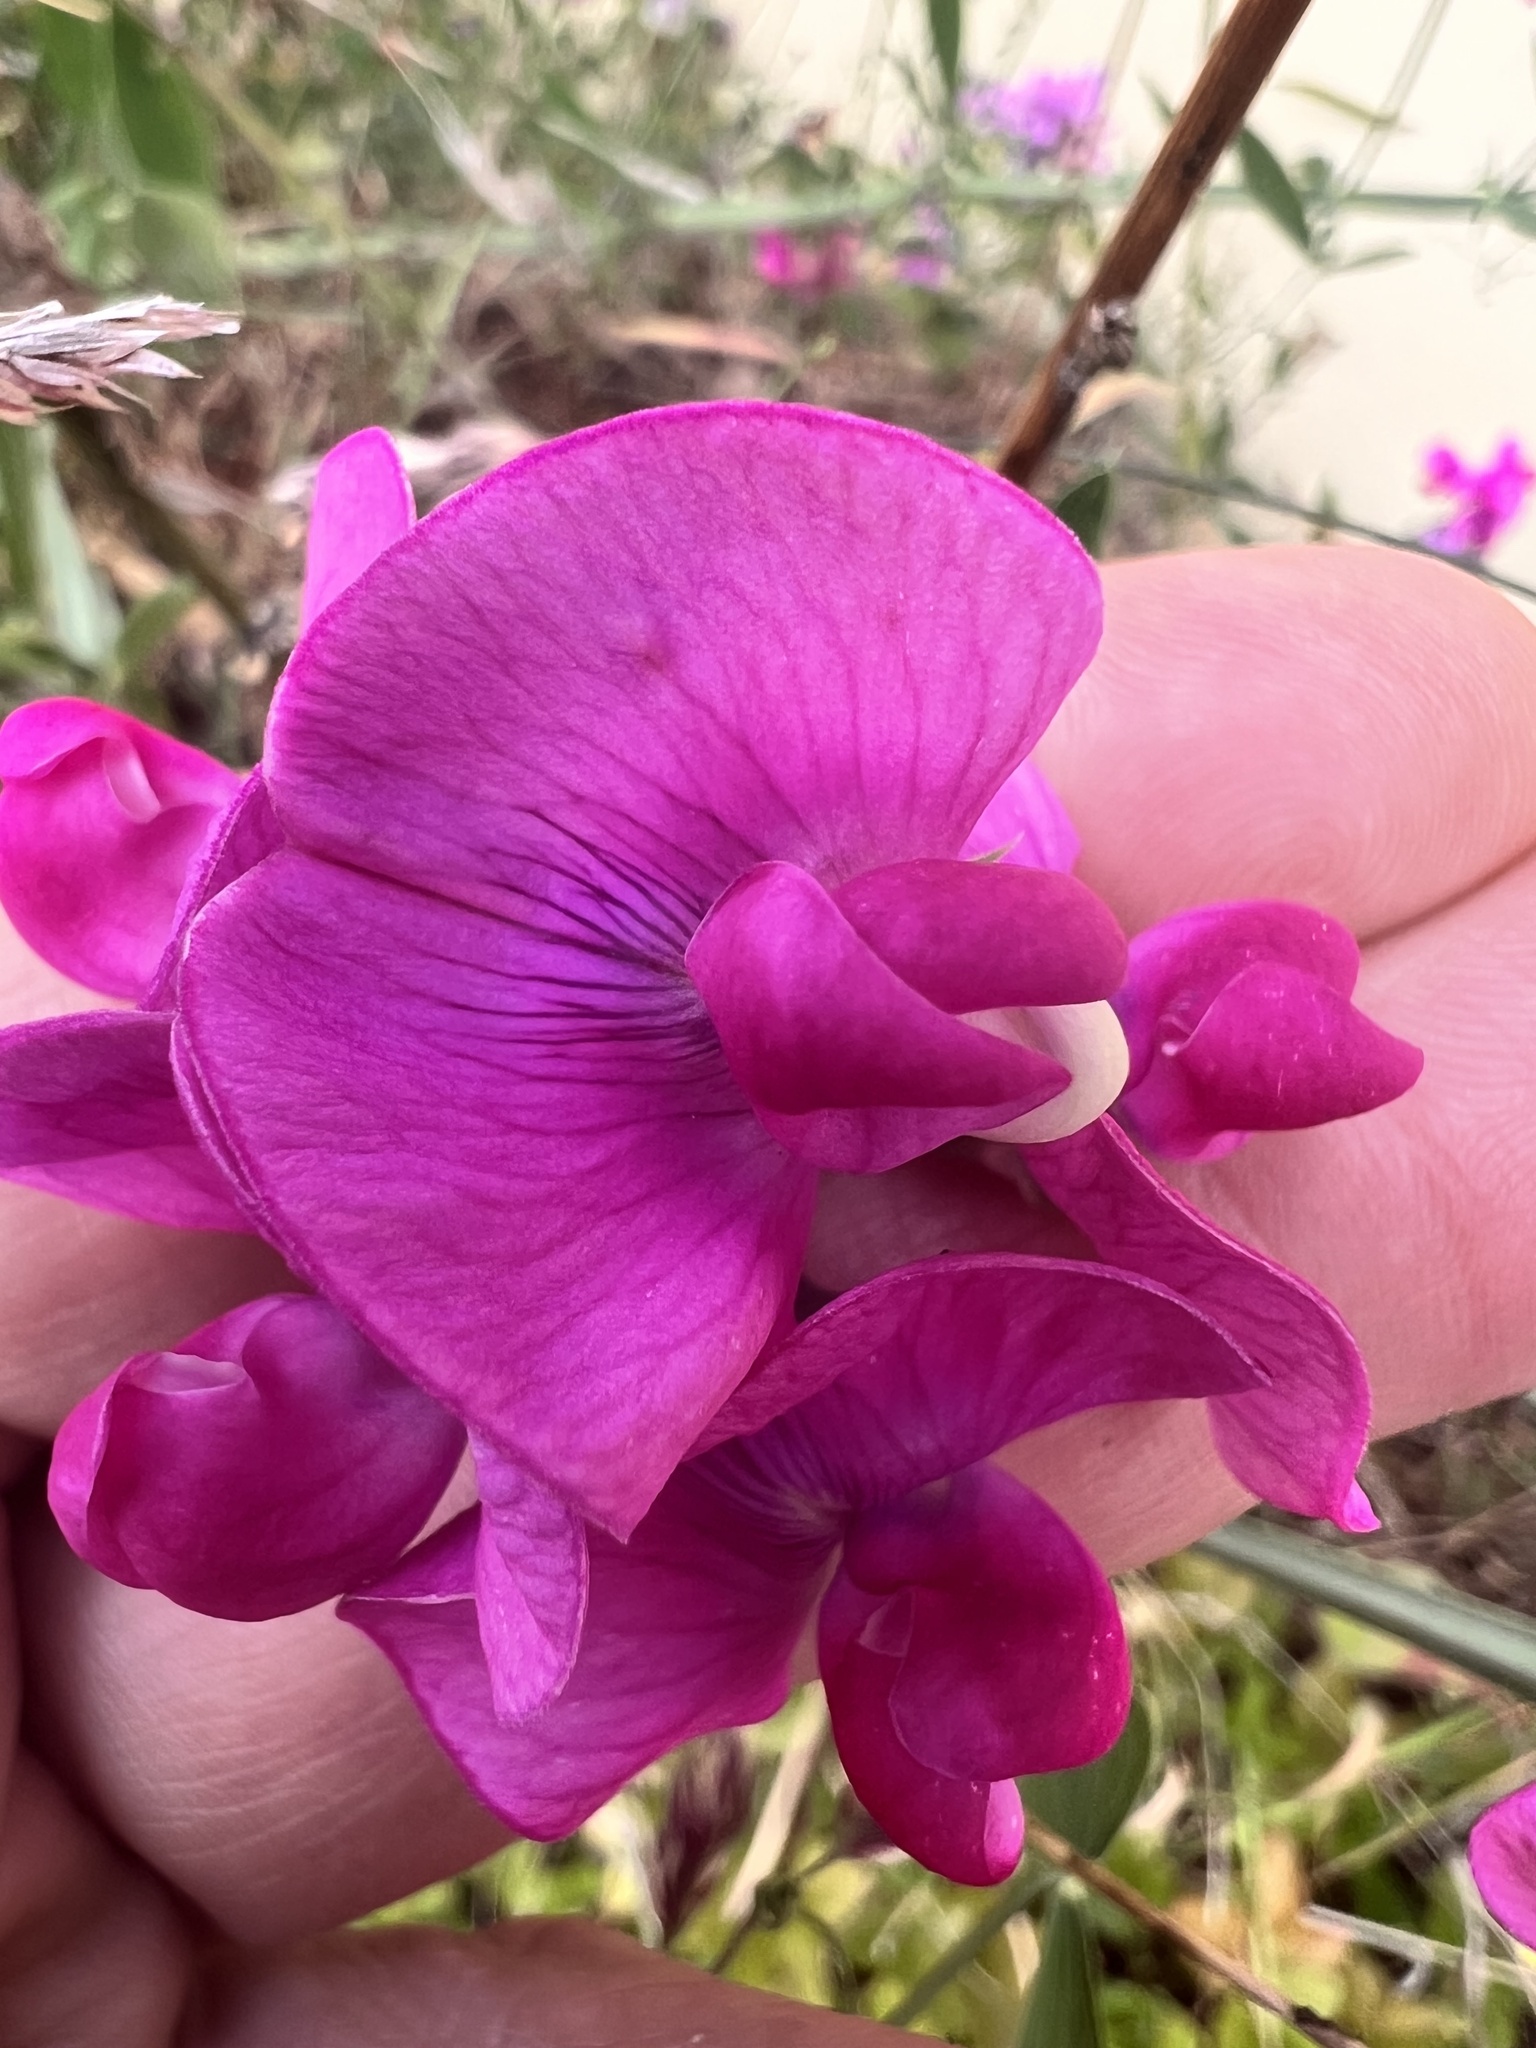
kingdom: Plantae
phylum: Tracheophyta
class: Magnoliopsida
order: Fabales
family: Fabaceae
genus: Lathyrus
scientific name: Lathyrus latifolius
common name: Perennial pea
